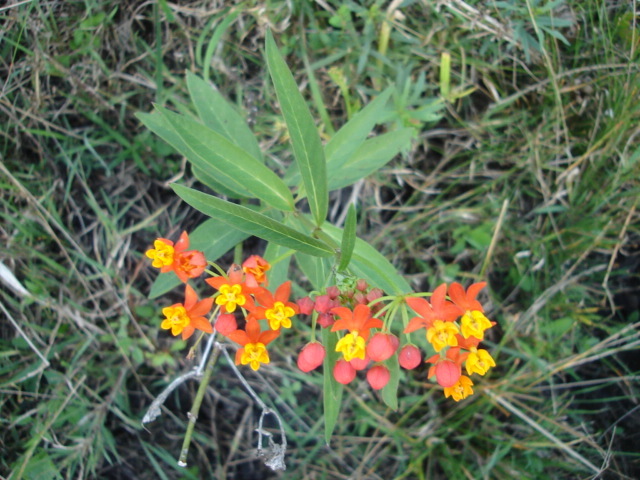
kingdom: Plantae
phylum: Tracheophyta
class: Magnoliopsida
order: Gentianales
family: Apocynaceae
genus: Asclepias
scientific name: Asclepias curassavica
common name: Bloodflower
